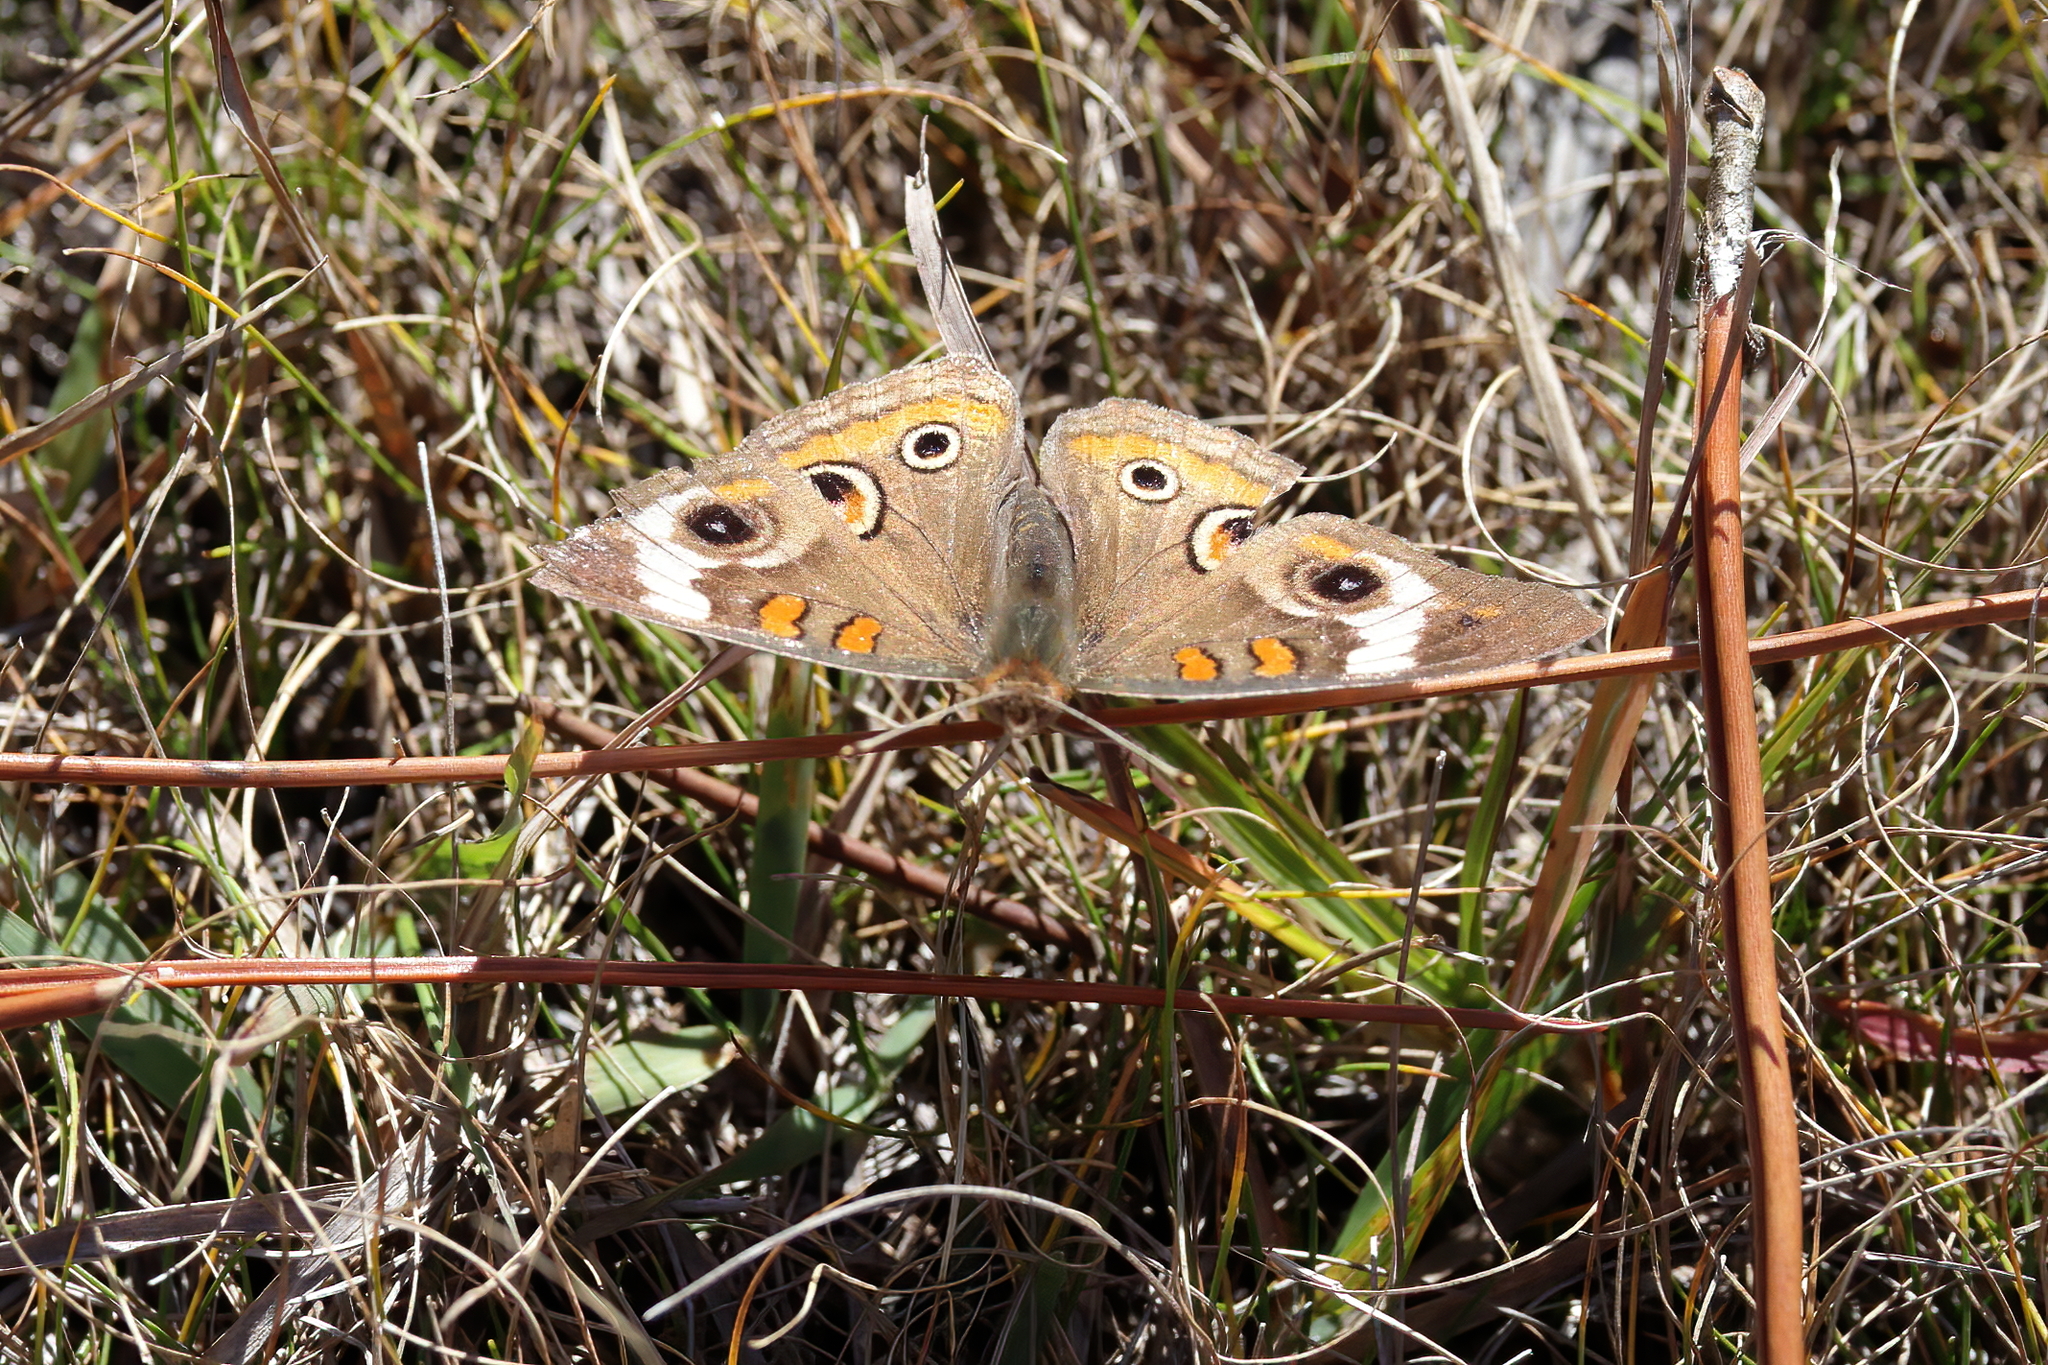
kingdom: Animalia
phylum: Arthropoda
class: Insecta
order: Lepidoptera
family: Nymphalidae
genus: Junonia
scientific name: Junonia coenia
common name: Common buckeye
